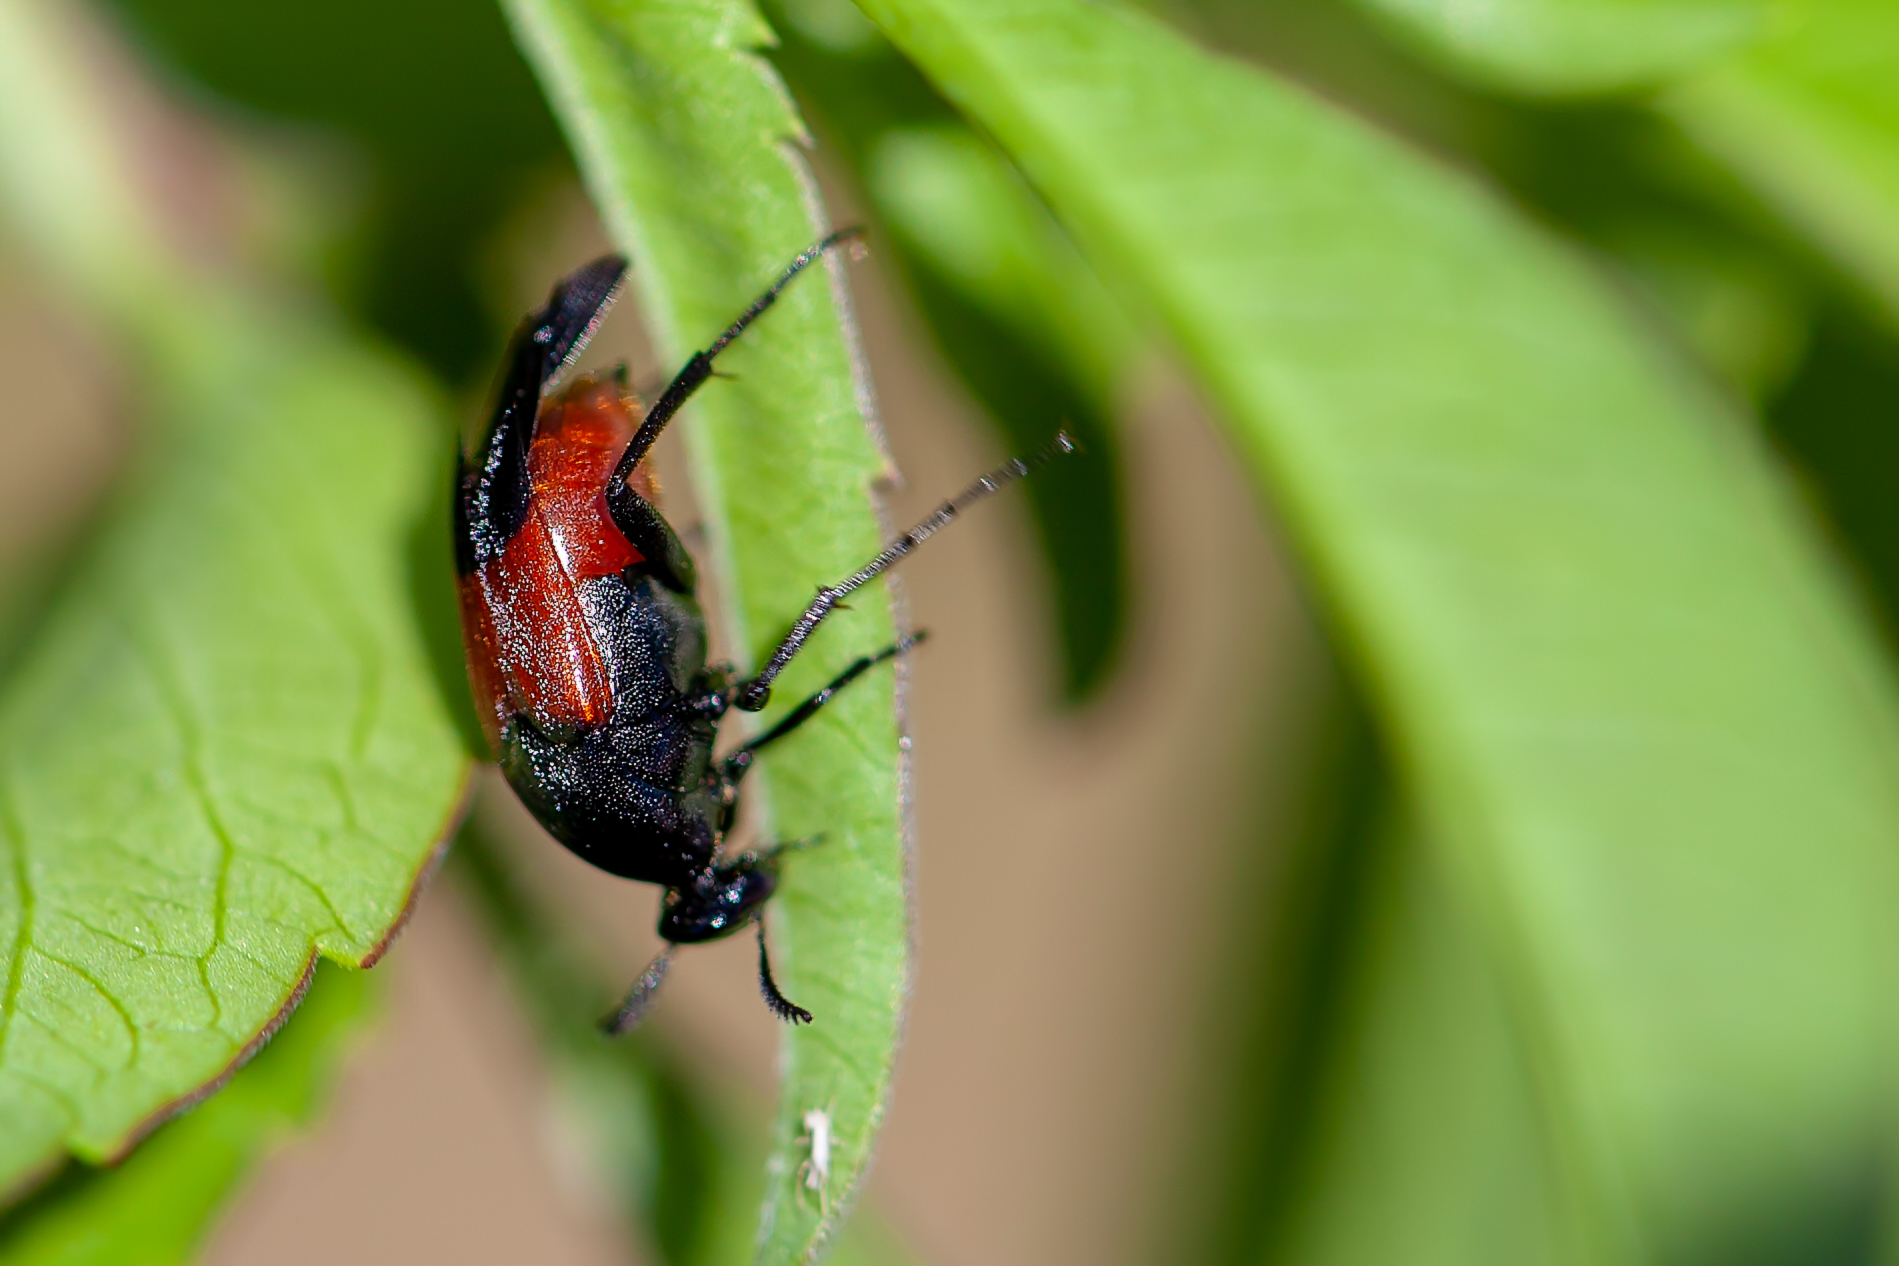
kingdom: Animalia
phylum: Arthropoda
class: Insecta
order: Coleoptera
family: Ripiphoridae
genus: Macrosiagon
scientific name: Macrosiagon cruentum
